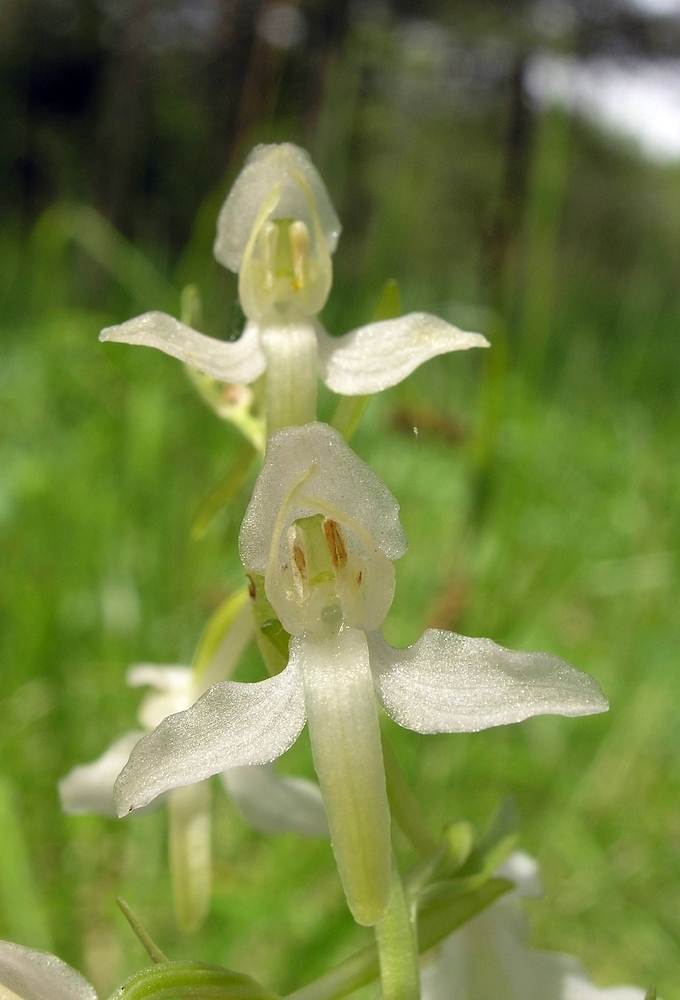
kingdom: Plantae
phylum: Tracheophyta
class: Liliopsida
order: Asparagales
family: Orchidaceae
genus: Platanthera
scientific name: Platanthera bifolia
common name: Lesser butterfly-orchid
